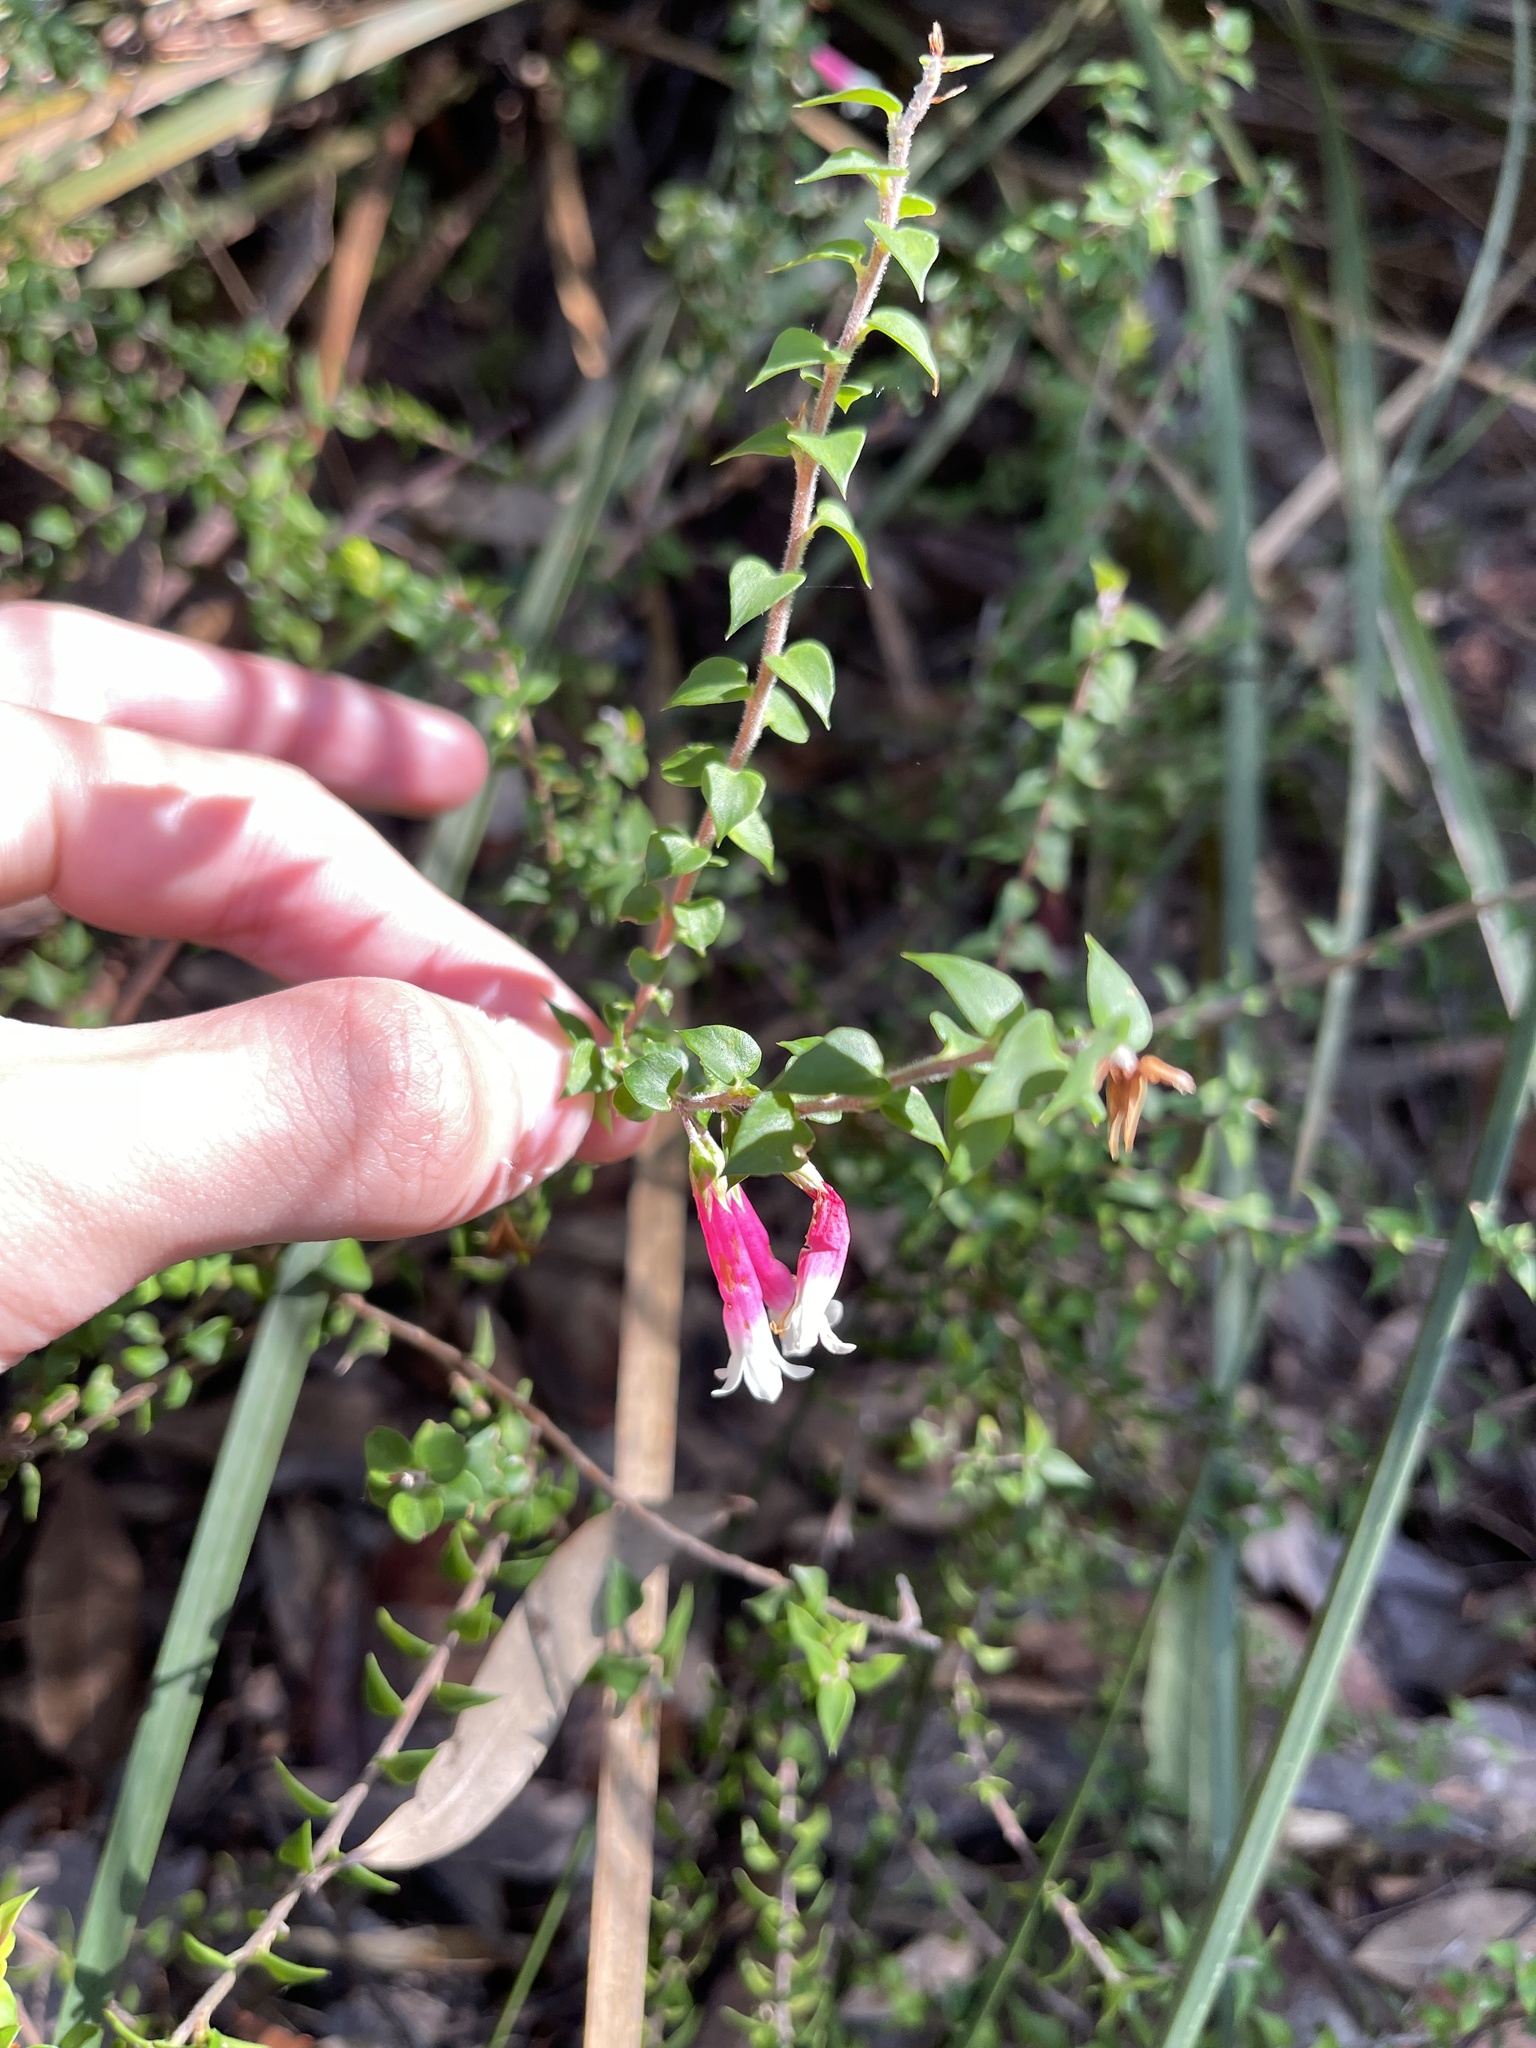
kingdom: Plantae
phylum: Tracheophyta
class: Magnoliopsida
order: Ericales
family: Ericaceae
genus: Epacris
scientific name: Epacris longiflora
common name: Fuchsia-heath
